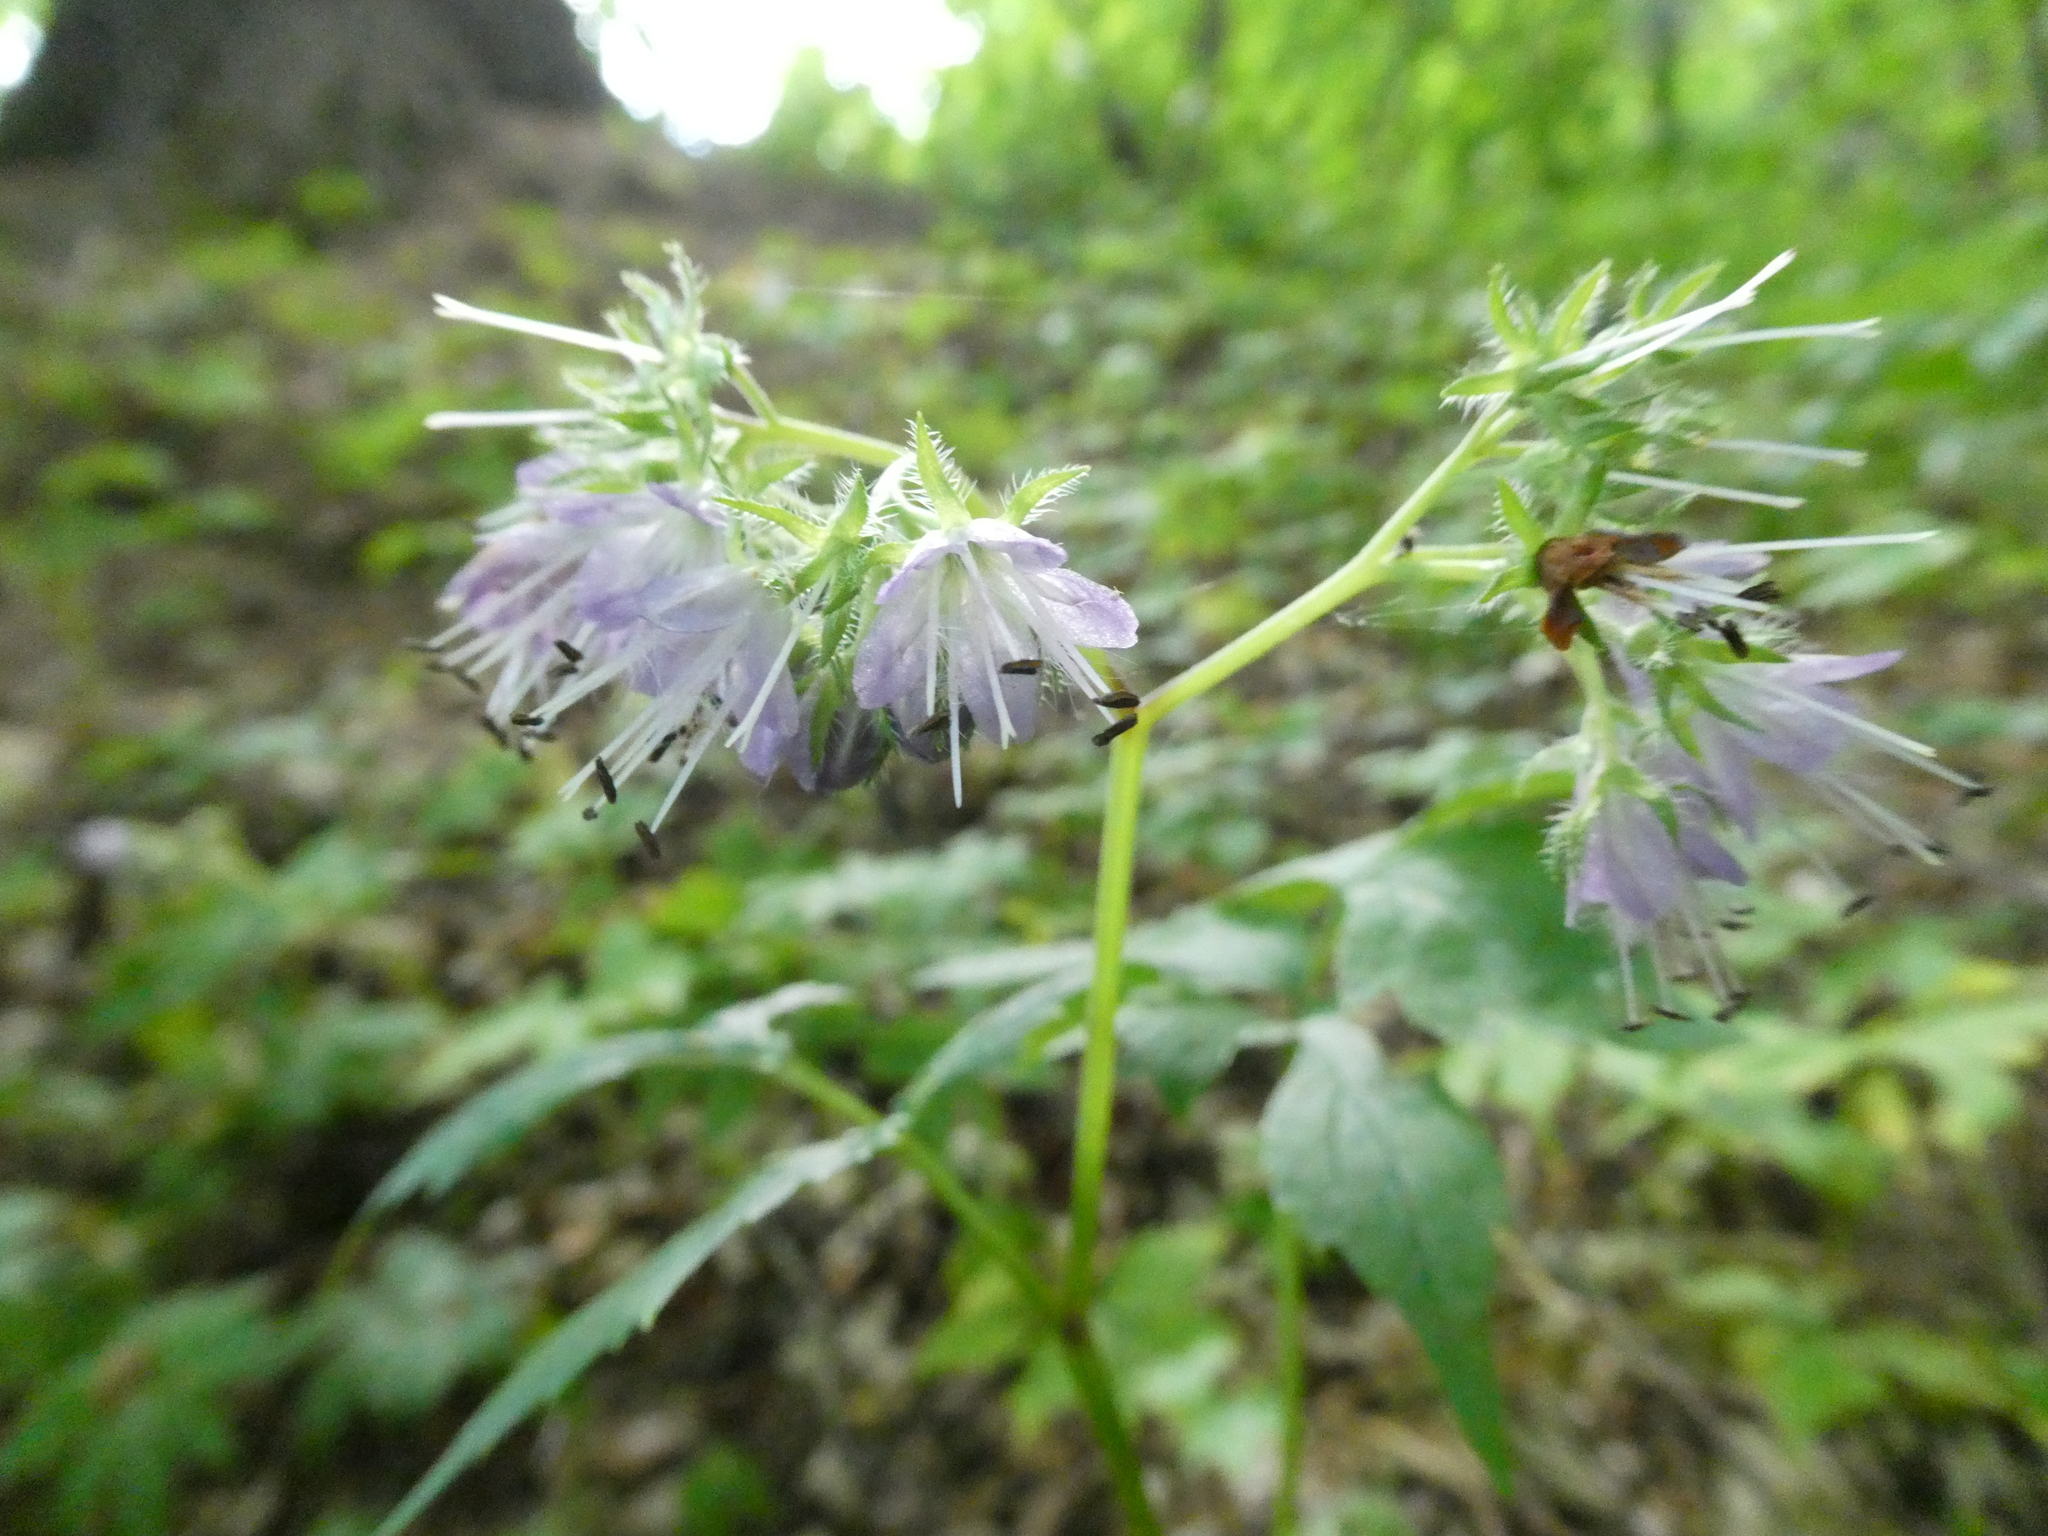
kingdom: Plantae
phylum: Tracheophyta
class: Magnoliopsida
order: Boraginales
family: Hydrophyllaceae
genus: Hydrophyllum
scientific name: Hydrophyllum virginianum
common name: Virginia waterleaf
